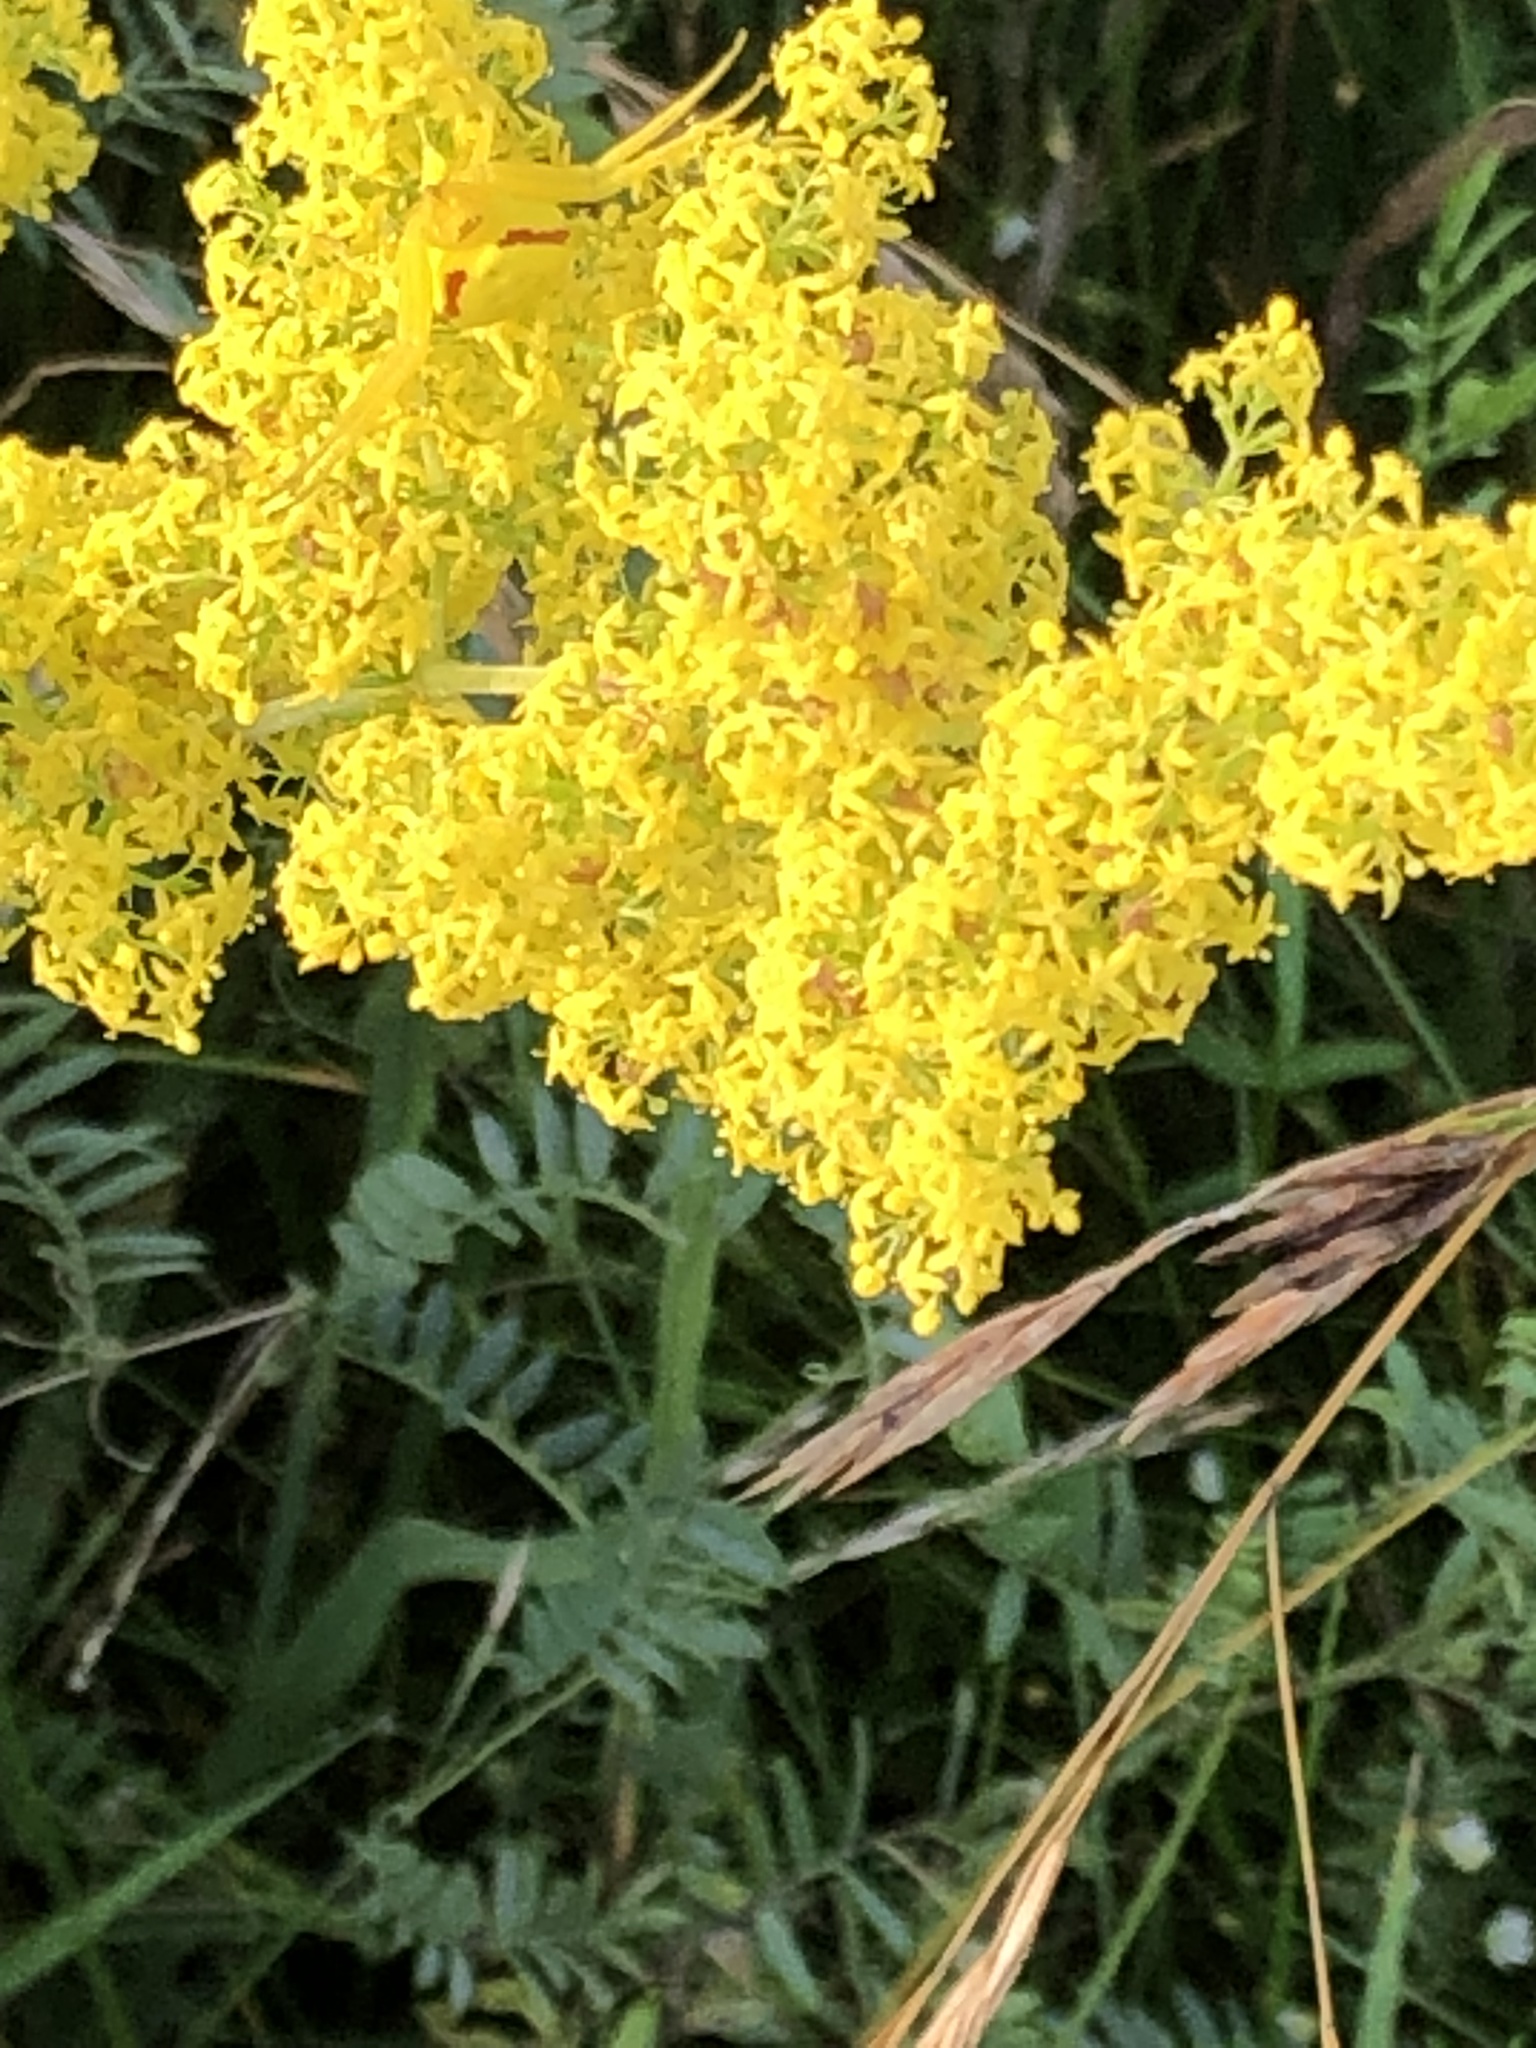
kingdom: Plantae
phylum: Tracheophyta
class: Magnoliopsida
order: Gentianales
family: Rubiaceae
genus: Galium
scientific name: Galium verum
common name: Lady's bedstraw
